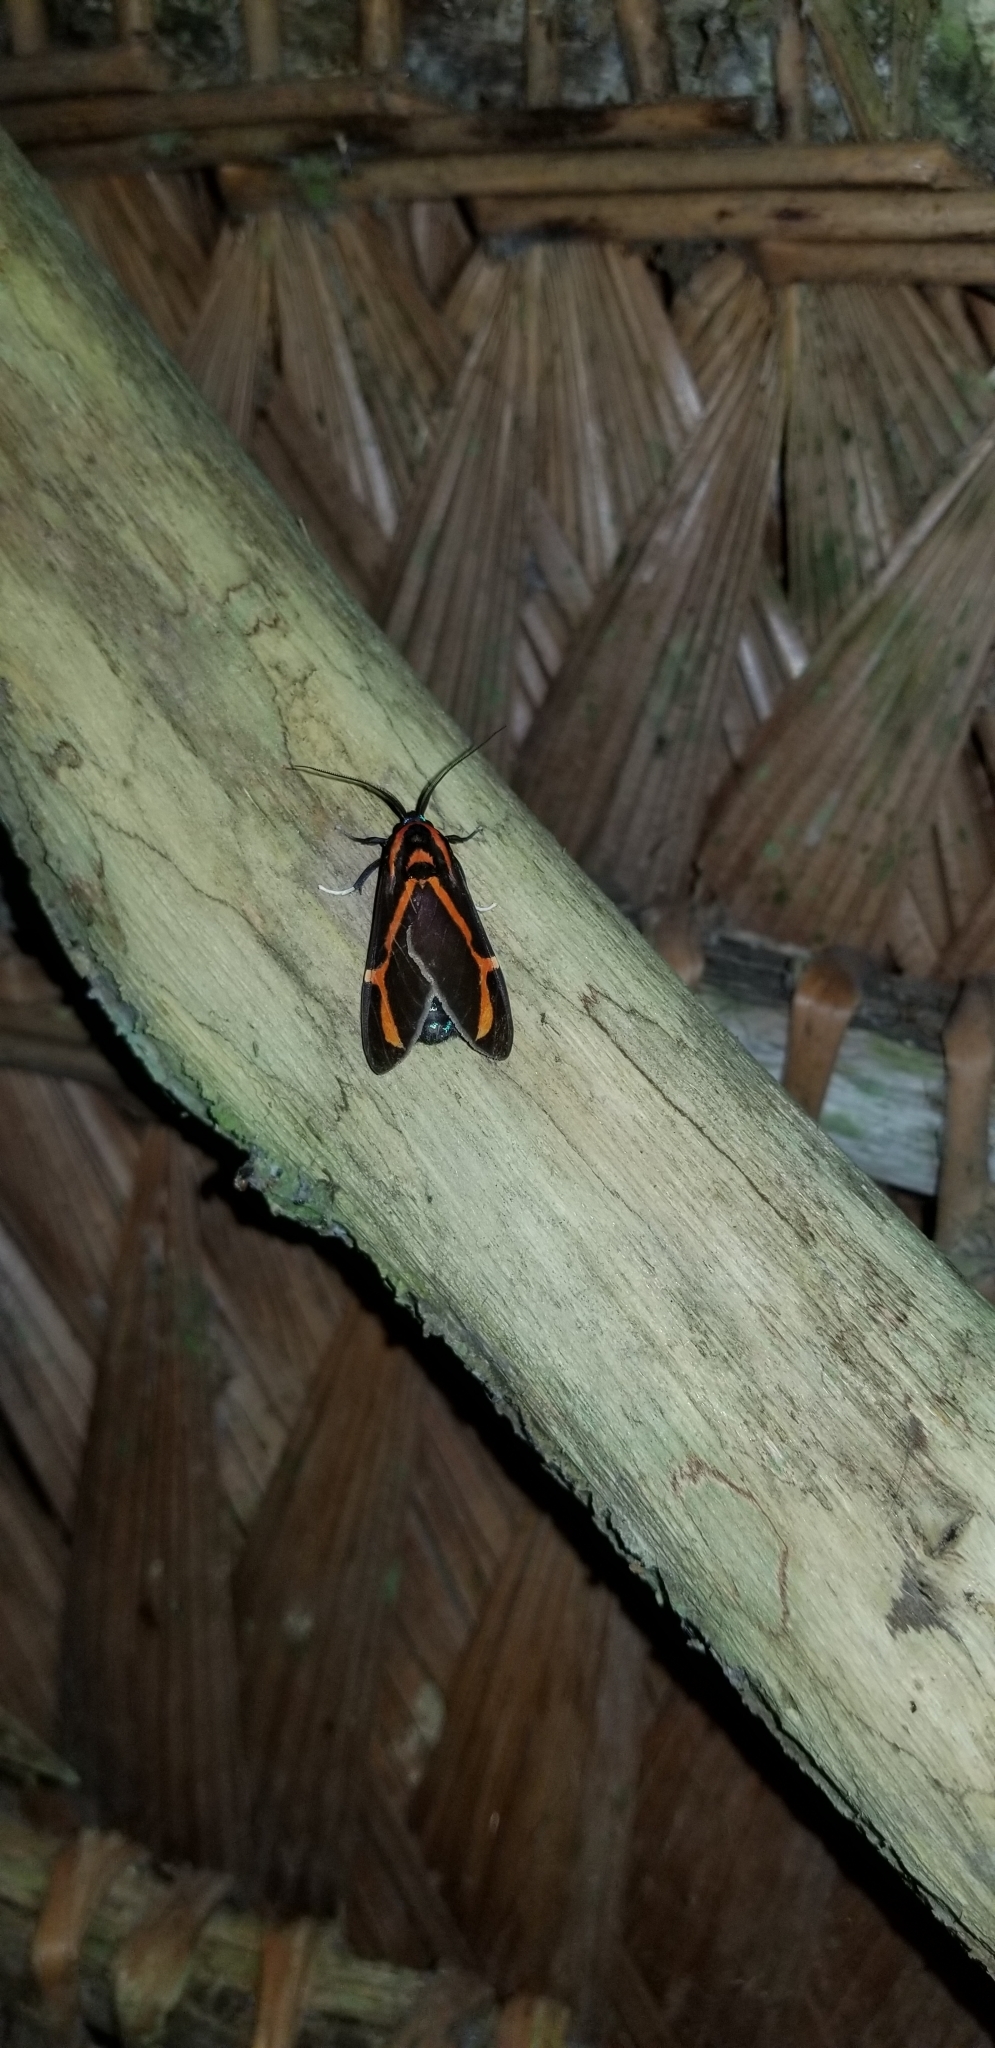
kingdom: Animalia
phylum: Arthropoda
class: Insecta
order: Lepidoptera
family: Erebidae
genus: Himerarctia
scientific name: Himerarctia docis
